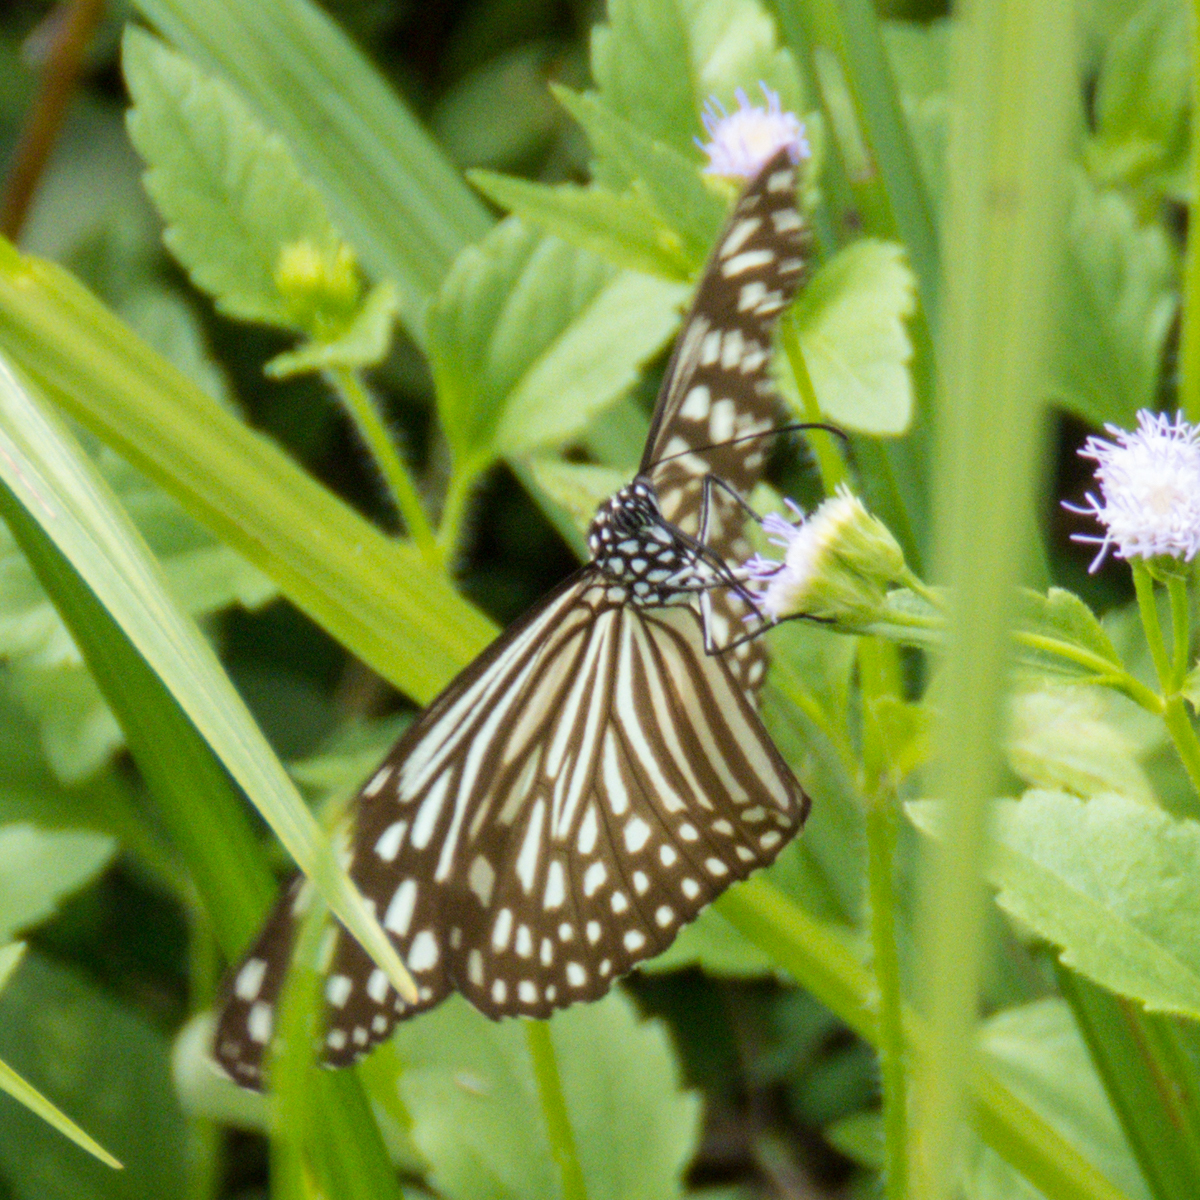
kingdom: Animalia
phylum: Arthropoda
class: Insecta
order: Lepidoptera
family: Nymphalidae
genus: Parantica
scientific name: Parantica agleoides
